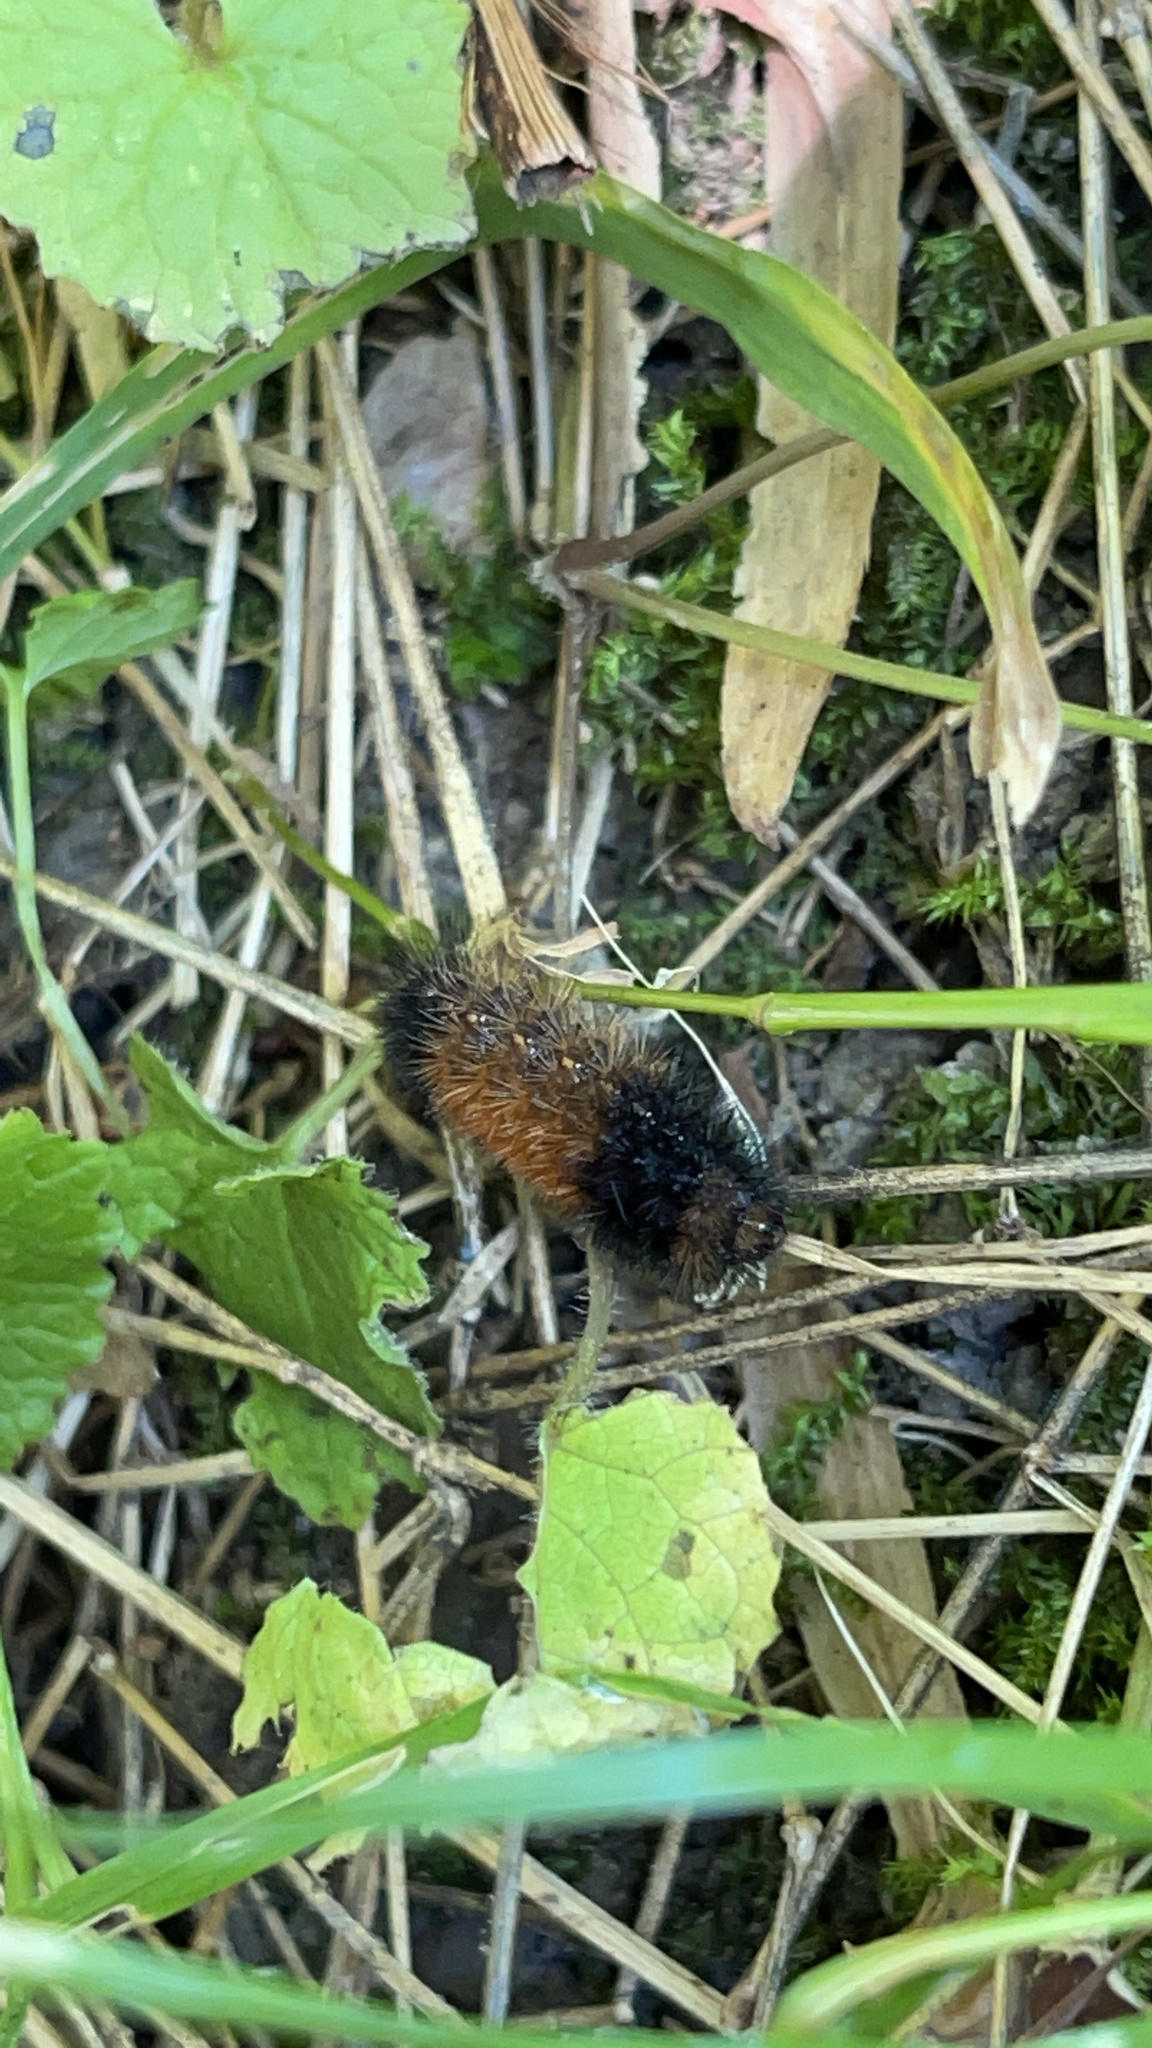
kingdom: Animalia
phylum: Arthropoda
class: Insecta
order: Lepidoptera
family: Erebidae
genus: Pyrrharctia
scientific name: Pyrrharctia isabella
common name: Isabella tiger moth
